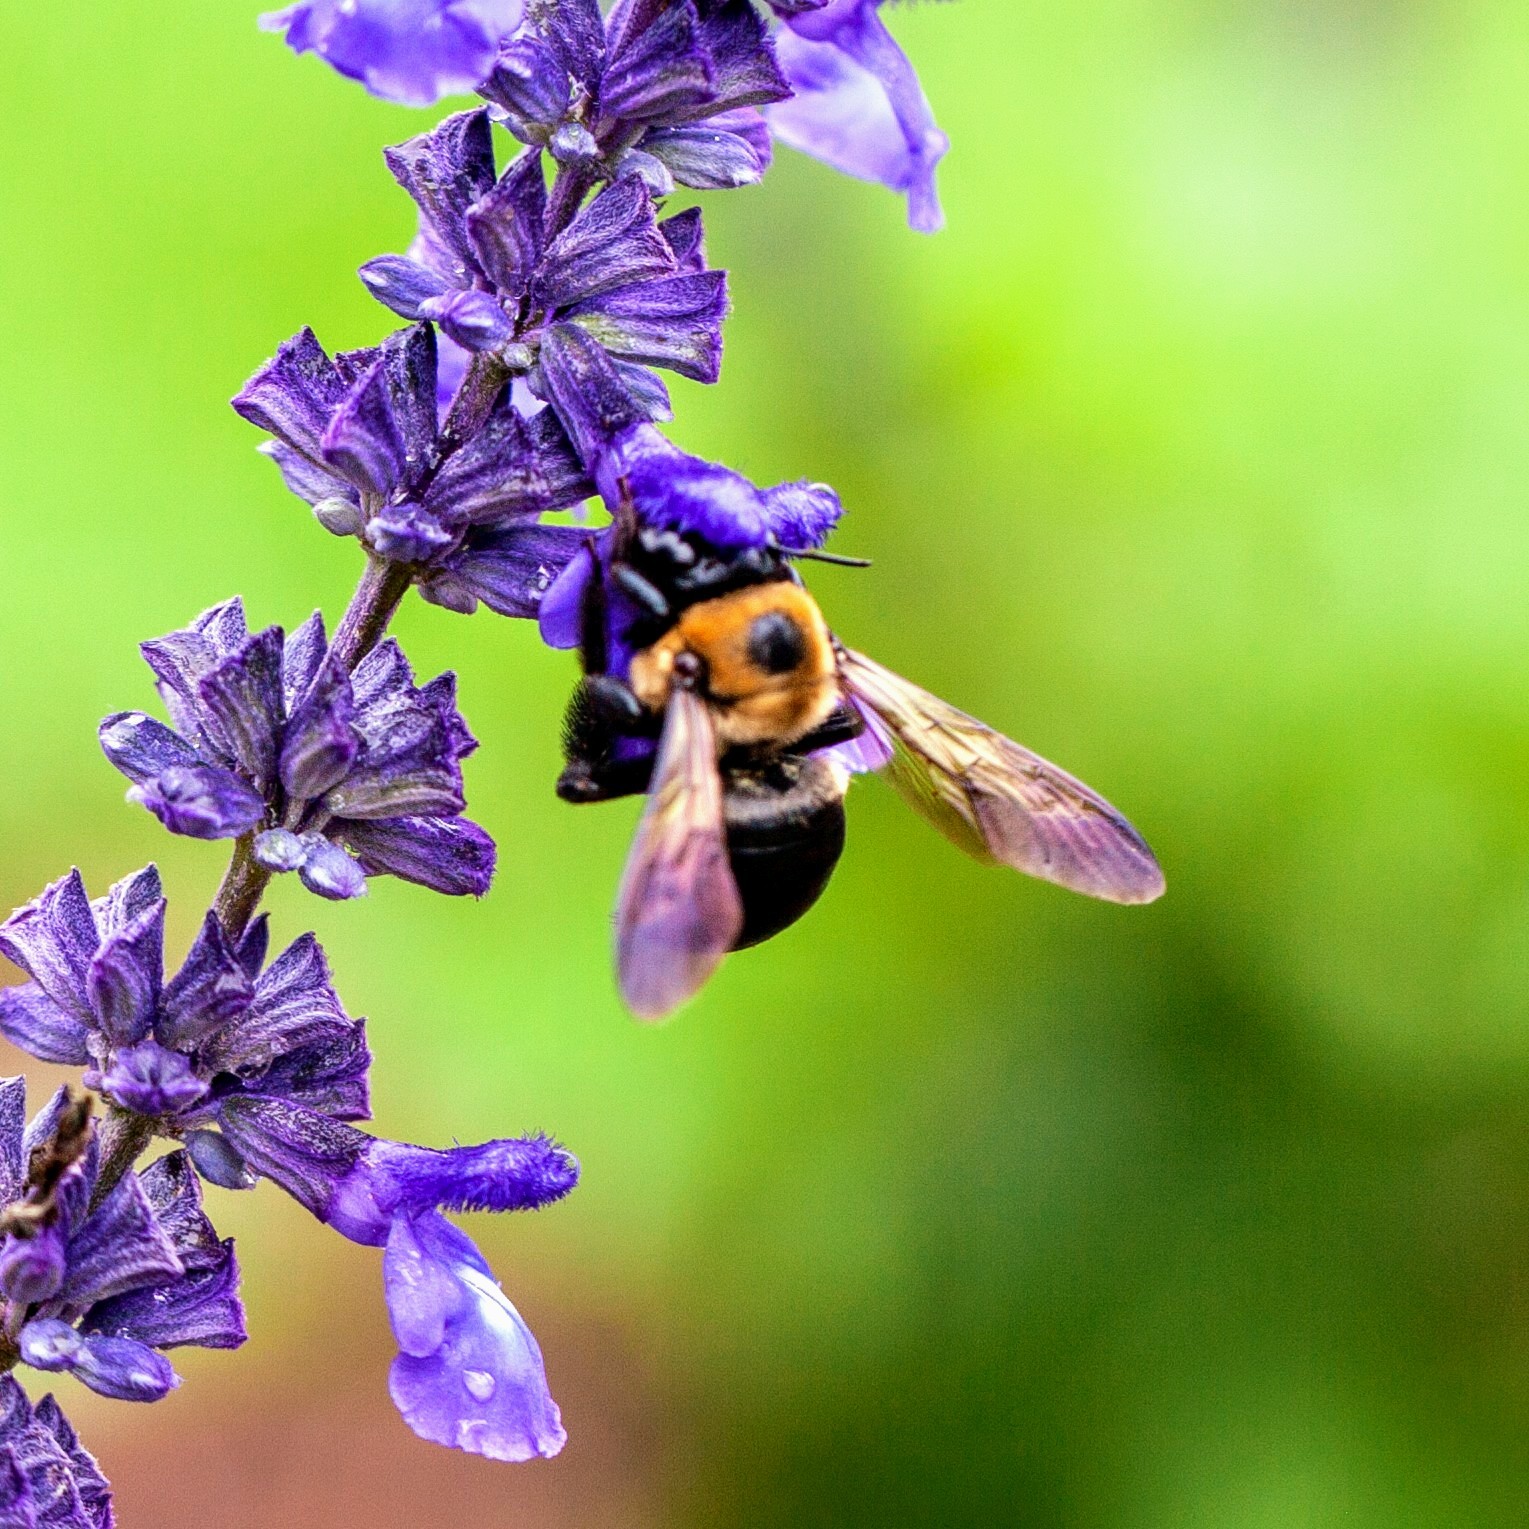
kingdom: Animalia
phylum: Arthropoda
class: Insecta
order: Hymenoptera
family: Apidae
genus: Xylocopa
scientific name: Xylocopa virginica
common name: Carpenter bee
